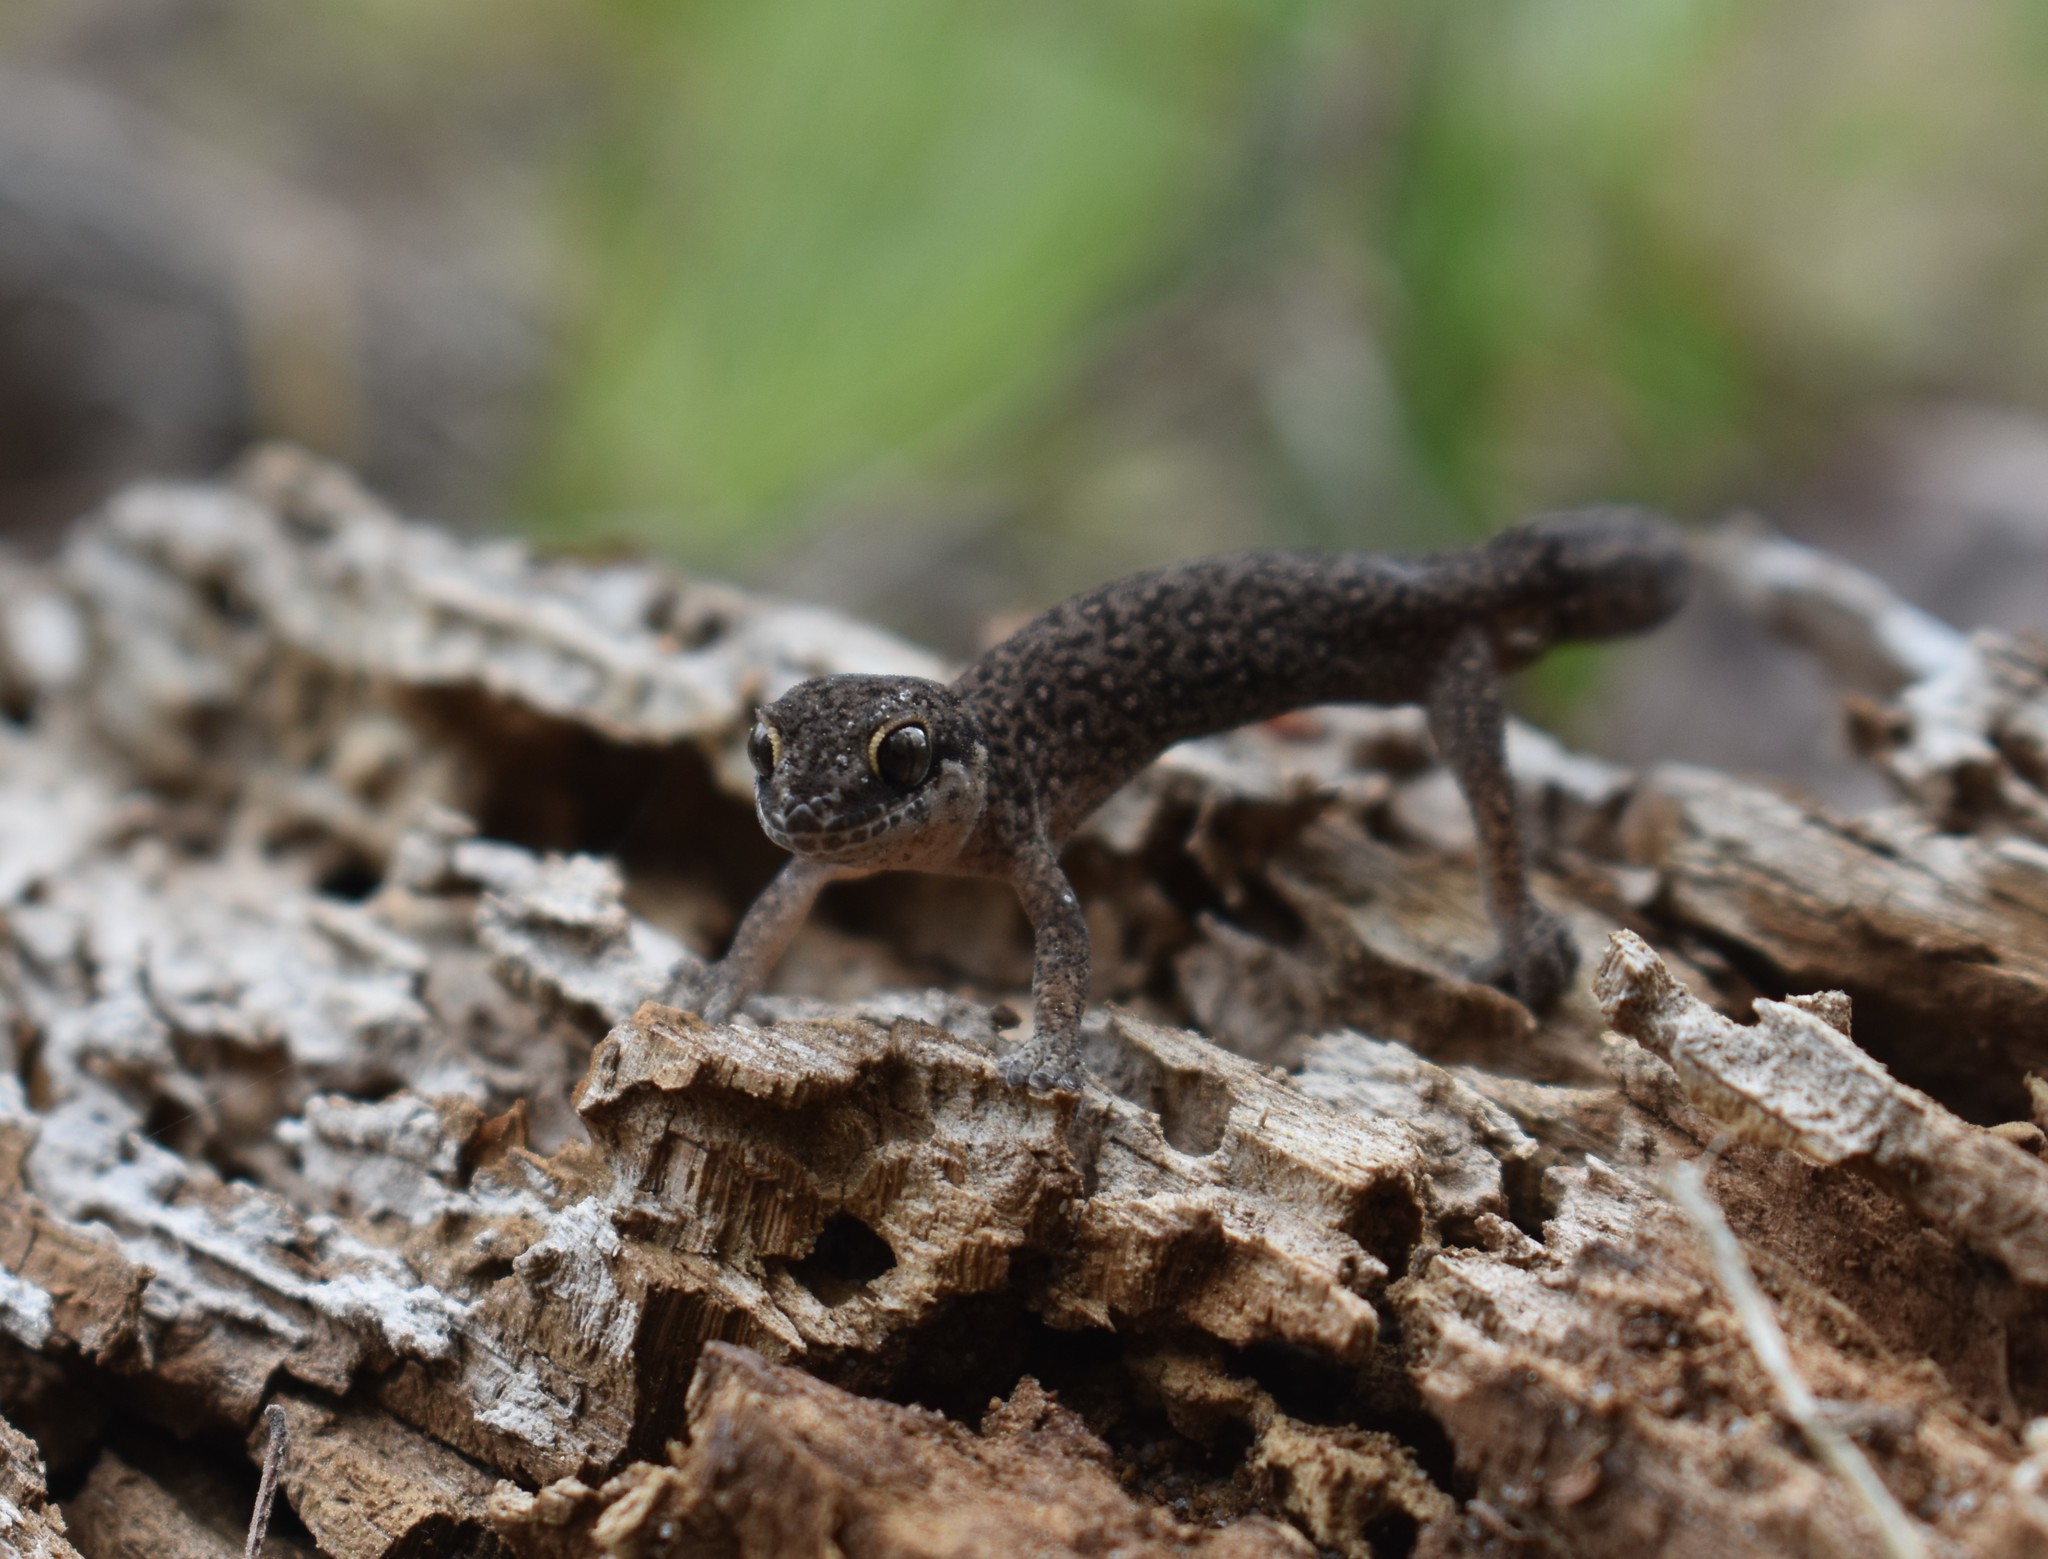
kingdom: Animalia
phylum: Chordata
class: Squamata
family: Gekkonidae
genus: Pachydactylus
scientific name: Pachydactylus geitje
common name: Ocellated thick-toed gecko
